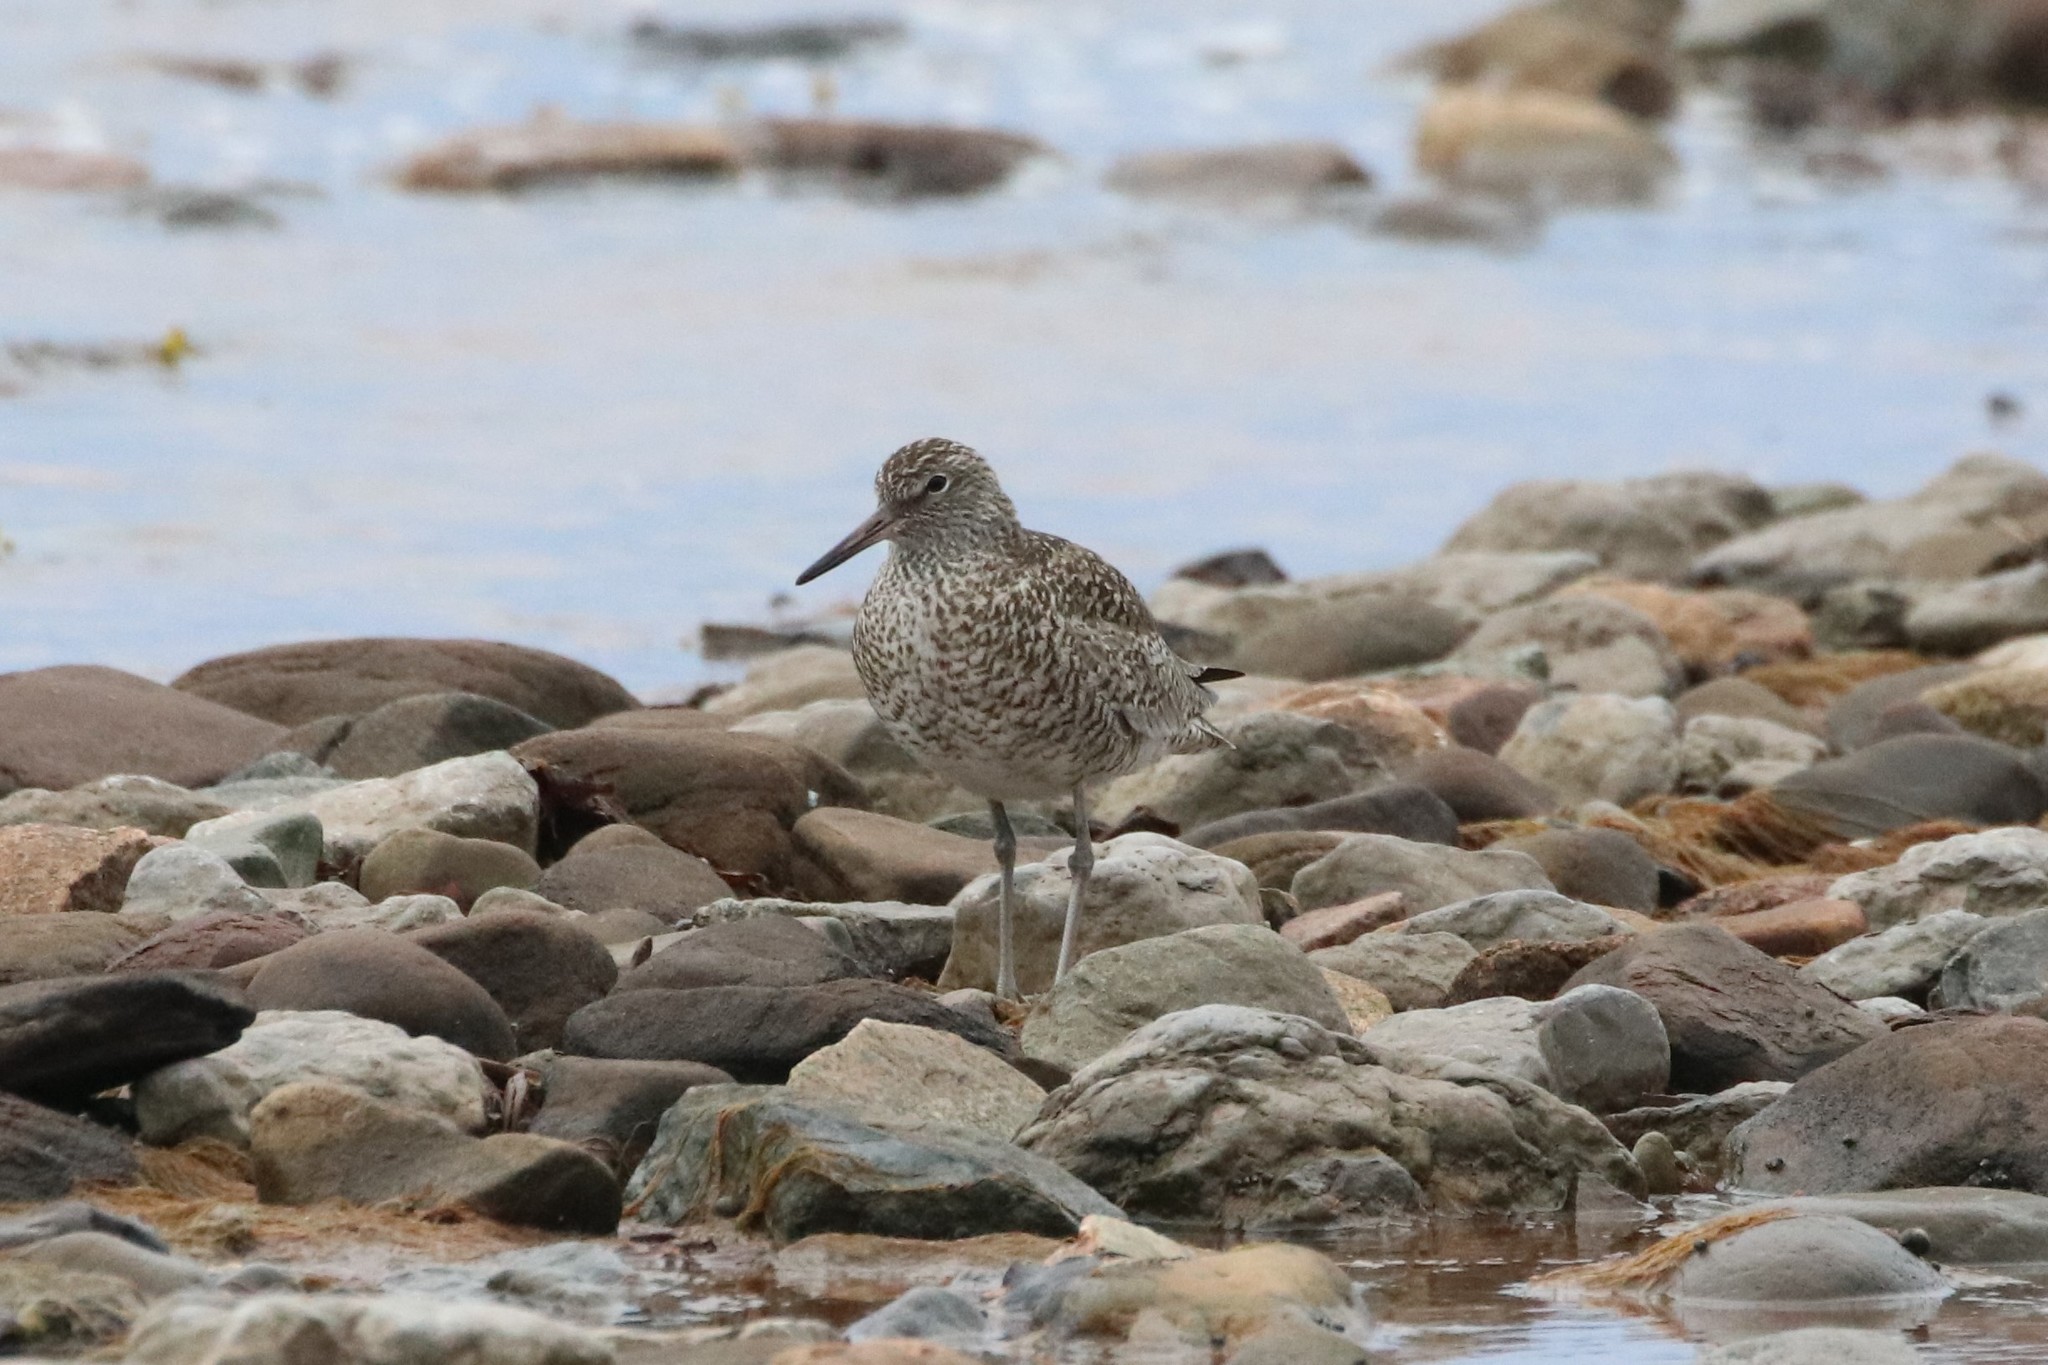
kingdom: Animalia
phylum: Chordata
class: Aves
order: Charadriiformes
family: Scolopacidae
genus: Tringa
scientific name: Tringa semipalmata
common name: Willet
